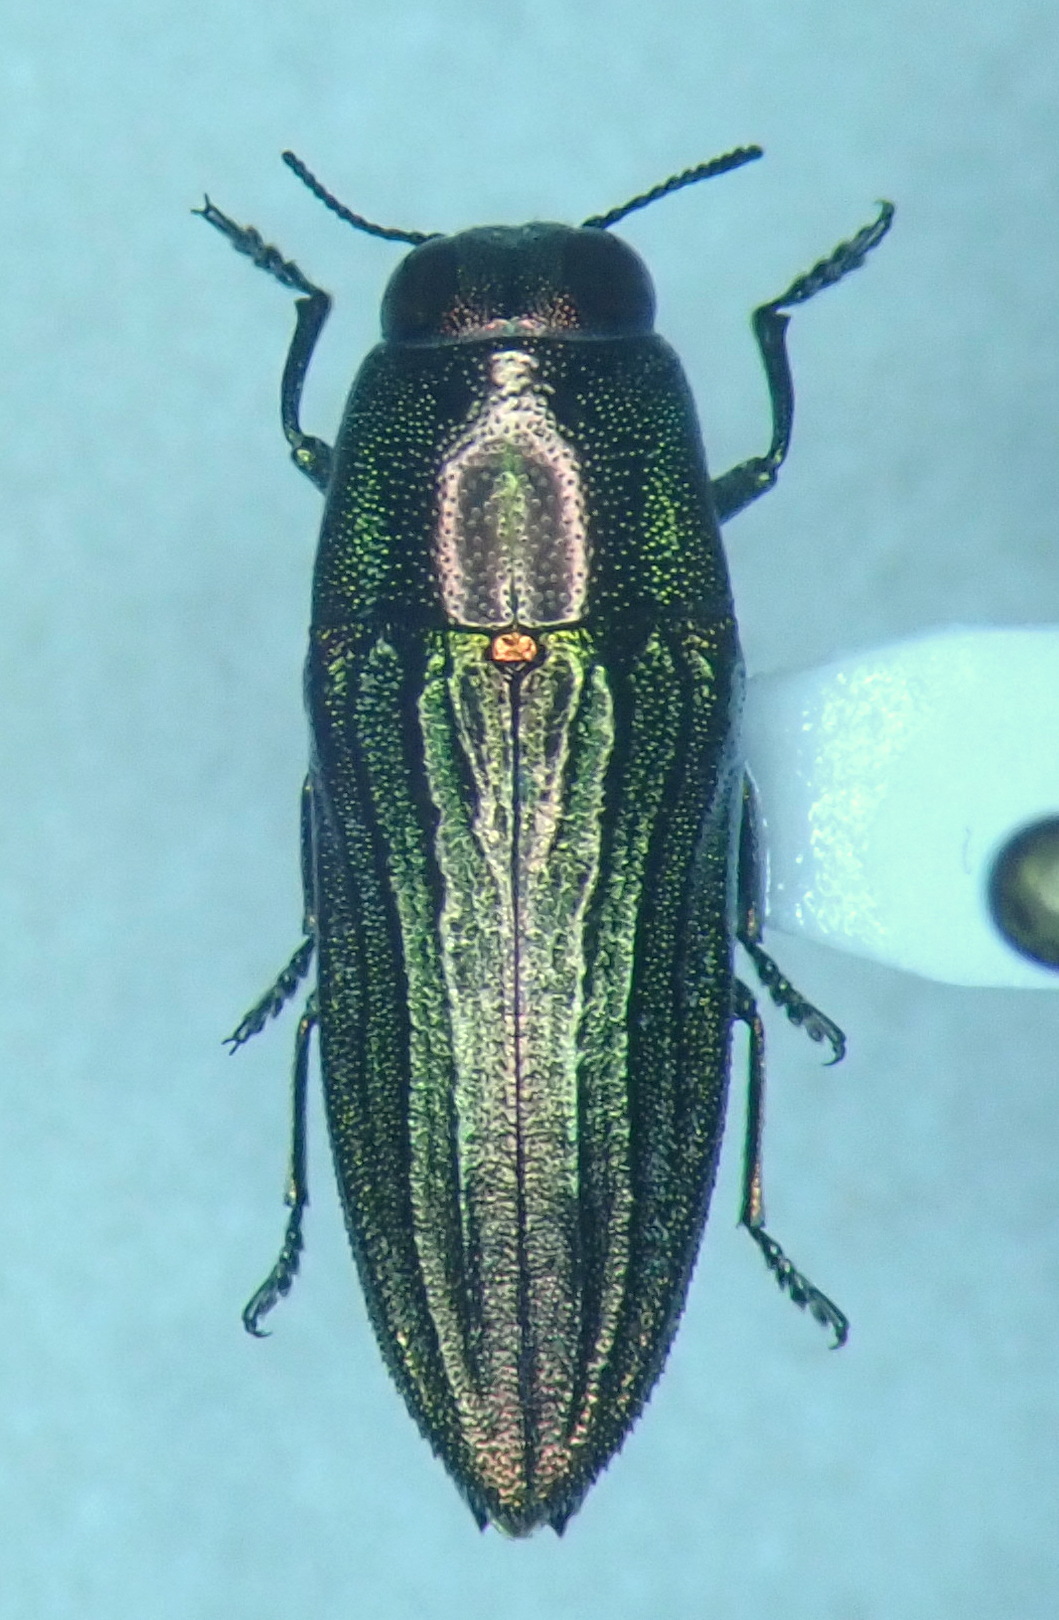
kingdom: Animalia
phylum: Arthropoda
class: Insecta
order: Coleoptera
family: Buprestidae
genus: Agaeocera
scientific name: Agaeocera scintillans
